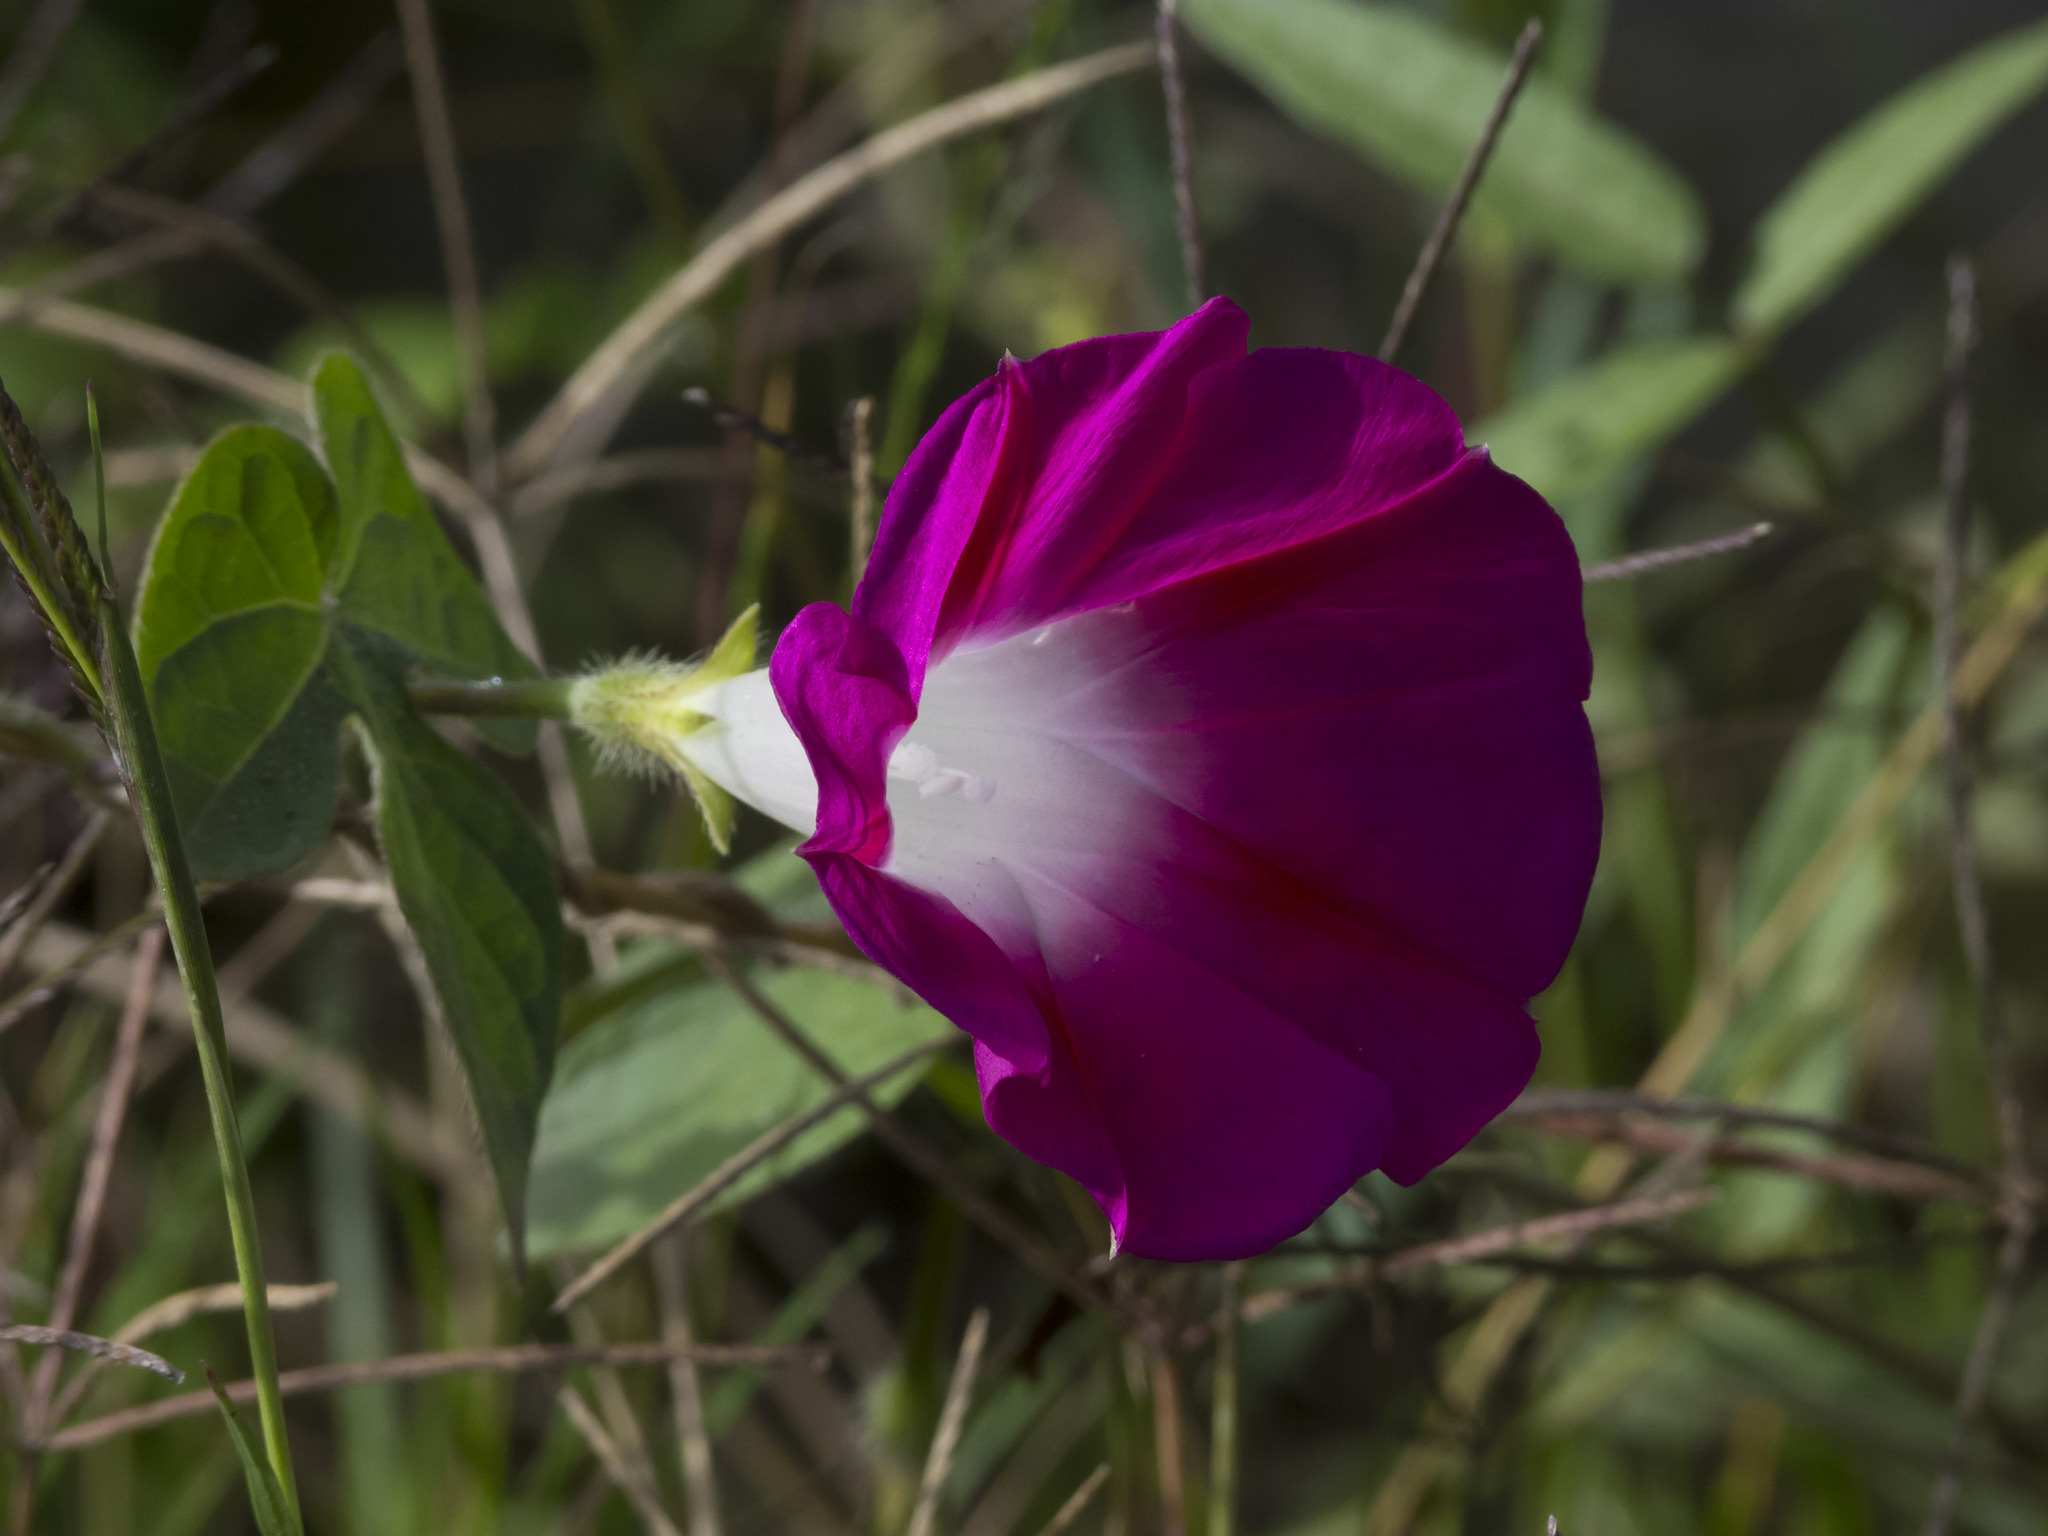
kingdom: Plantae
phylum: Tracheophyta
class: Magnoliopsida
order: Solanales
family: Convolvulaceae
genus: Ipomoea
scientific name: Ipomoea purpurea
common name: Common morning-glory
